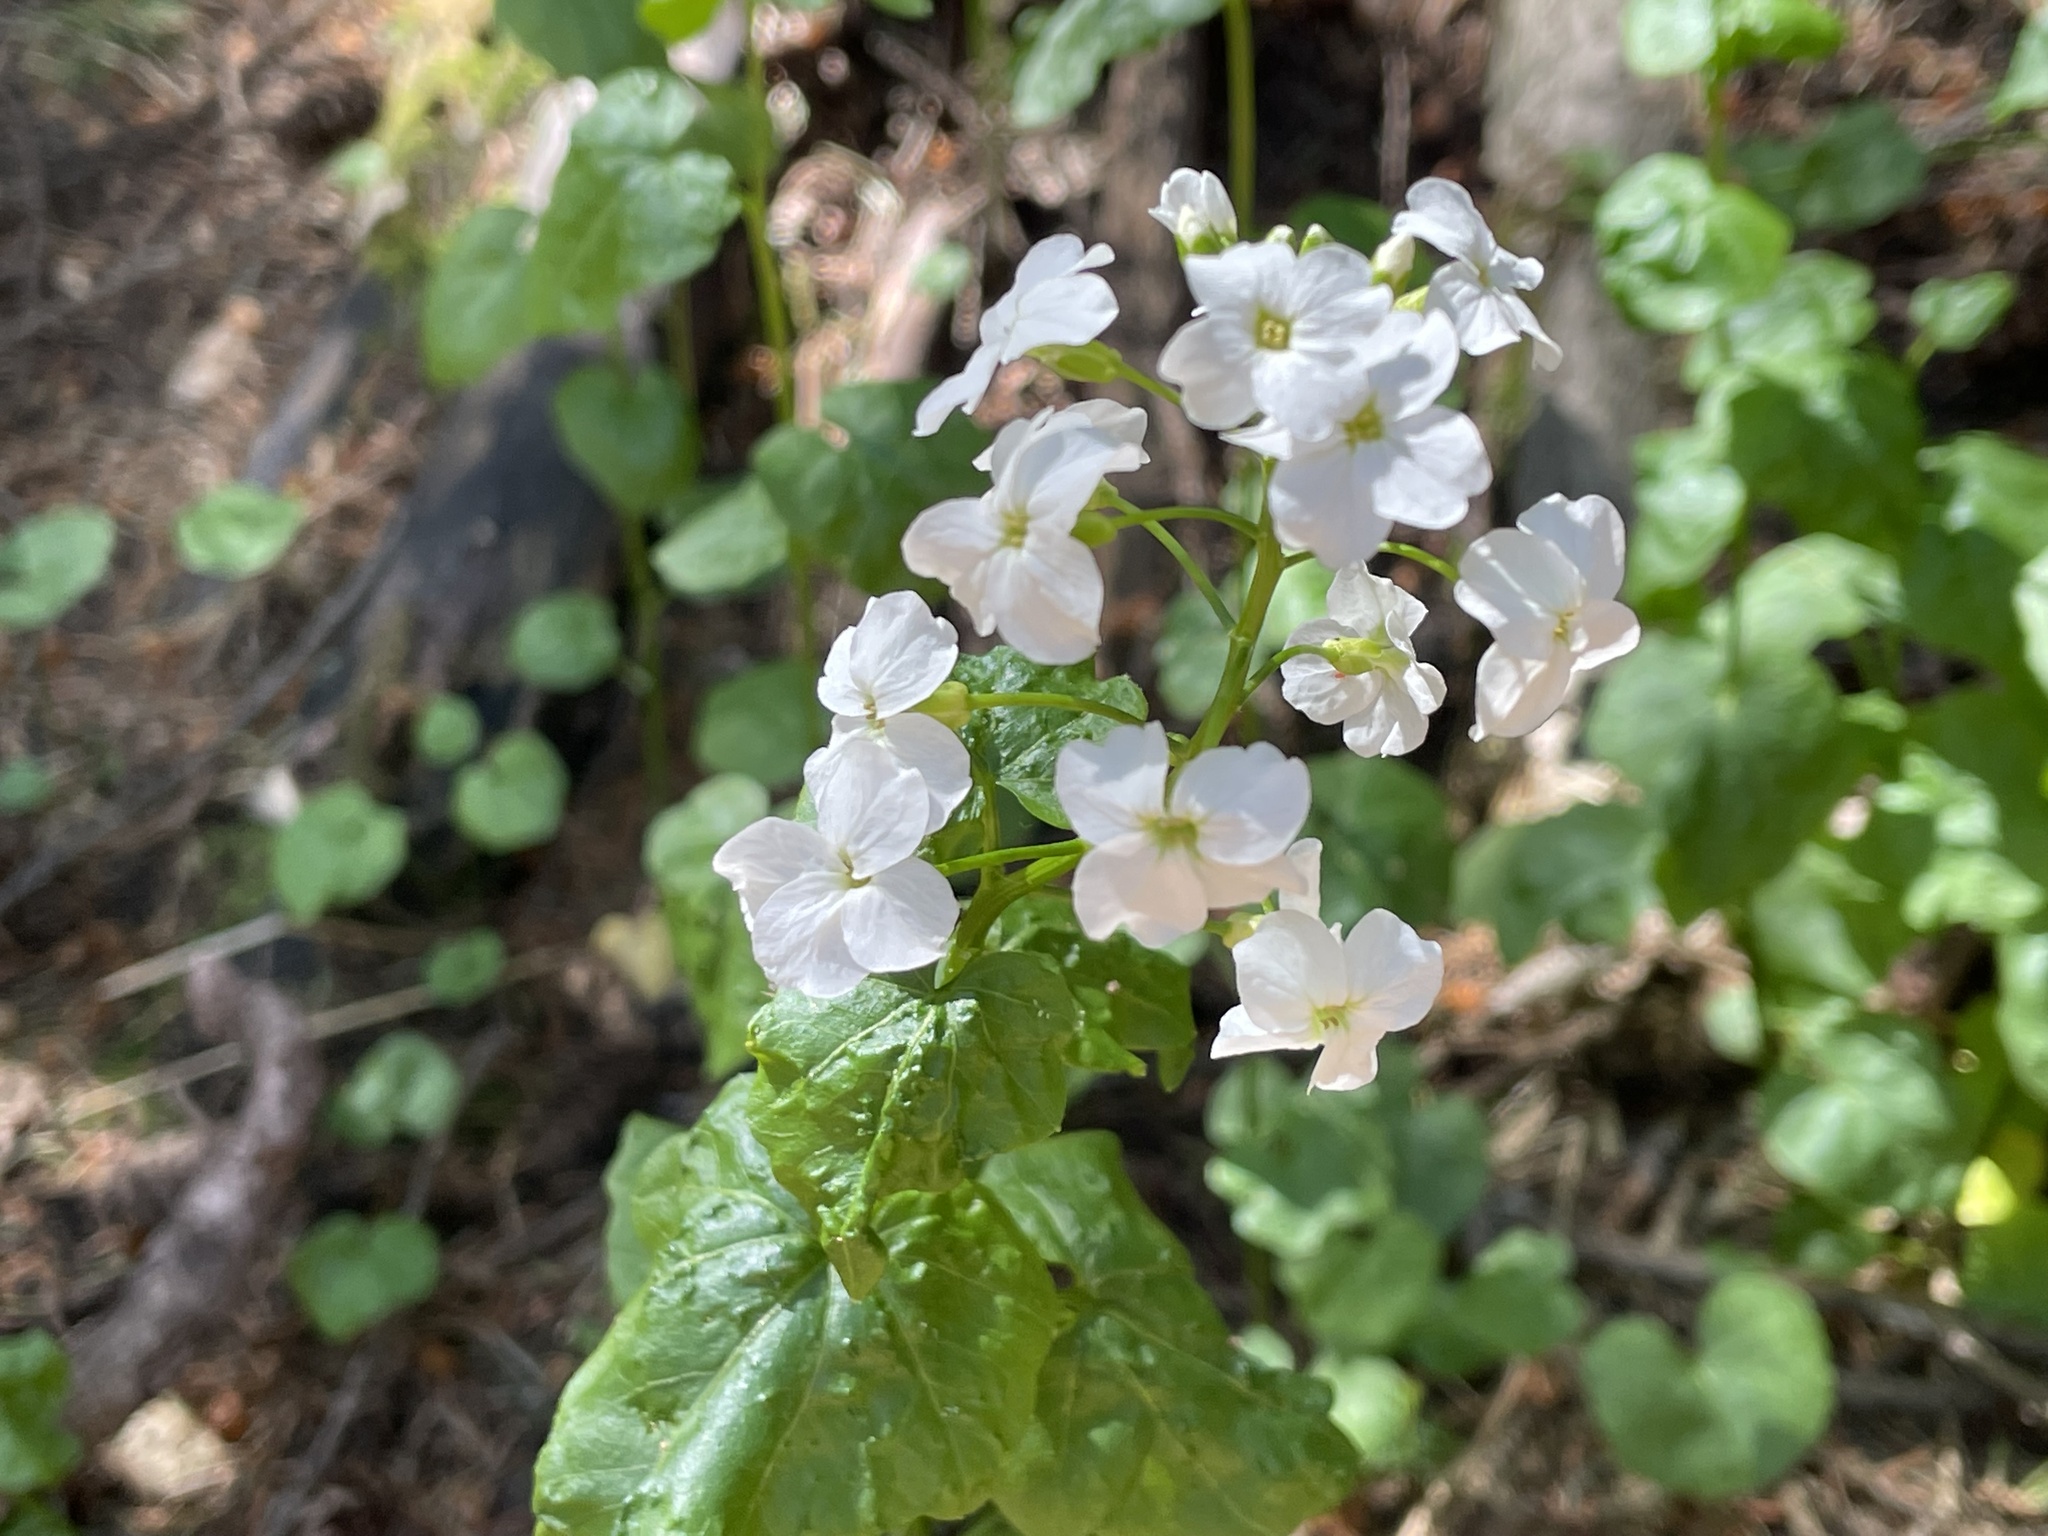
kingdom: Plantae
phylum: Tracheophyta
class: Magnoliopsida
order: Brassicales
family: Brassicaceae
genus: Cardamine
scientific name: Cardamine cordifolia
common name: Heart-leaf bittercress
